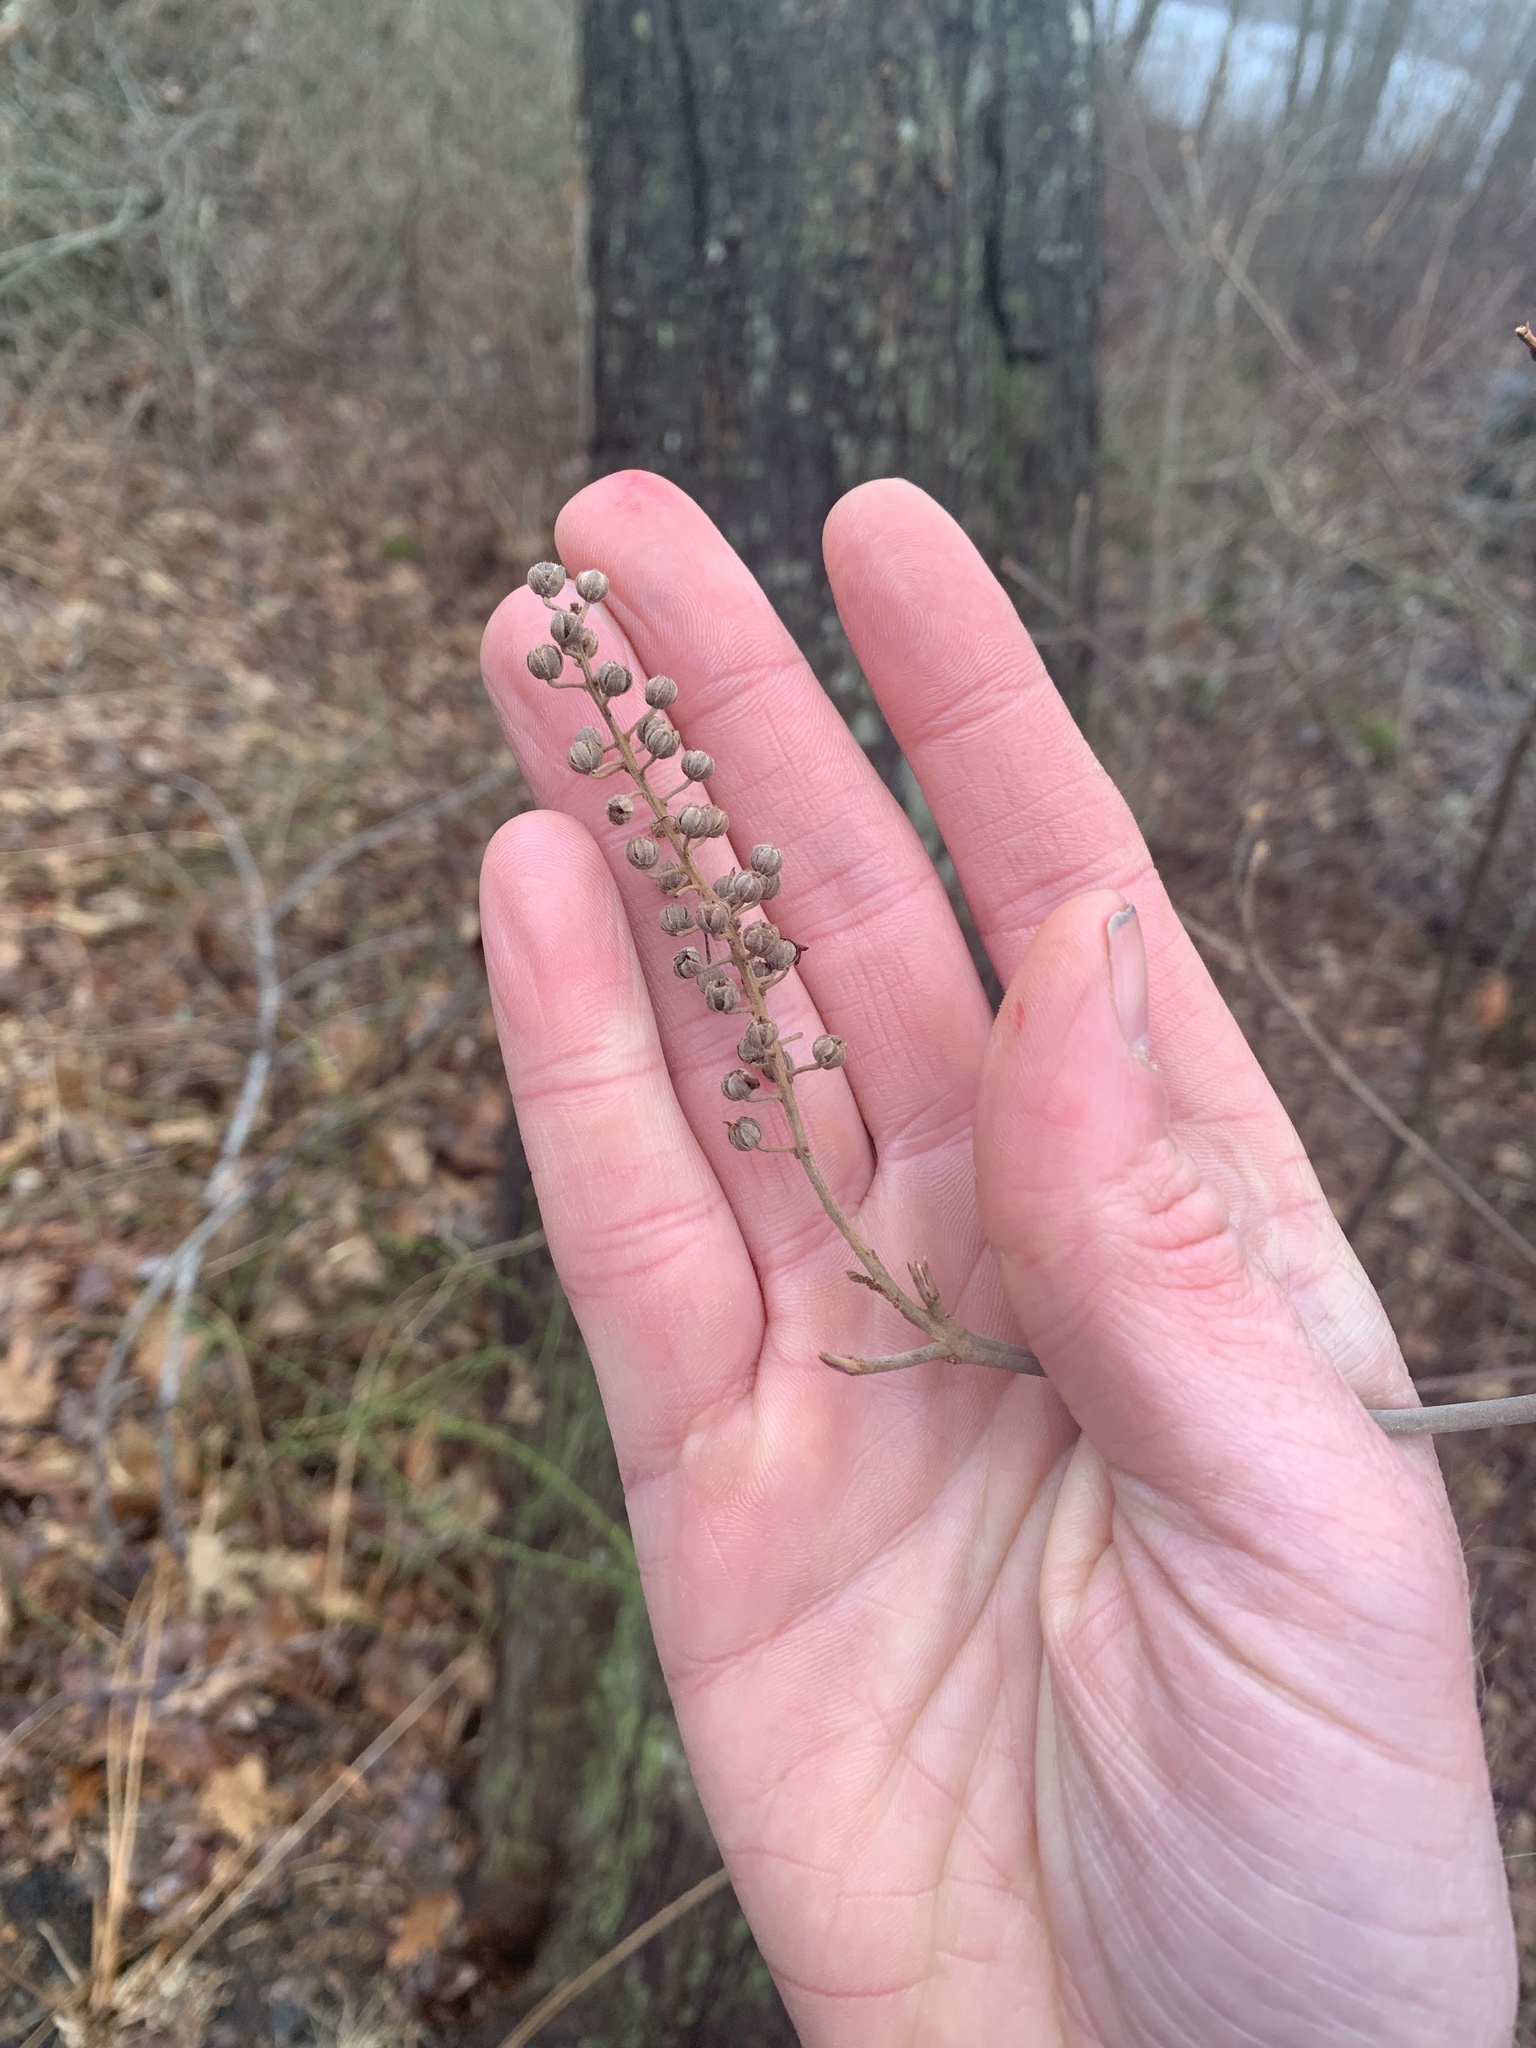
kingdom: Plantae
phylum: Tracheophyta
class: Magnoliopsida
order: Ericales
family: Clethraceae
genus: Clethra
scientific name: Clethra alnifolia
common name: Sweet pepperbush
